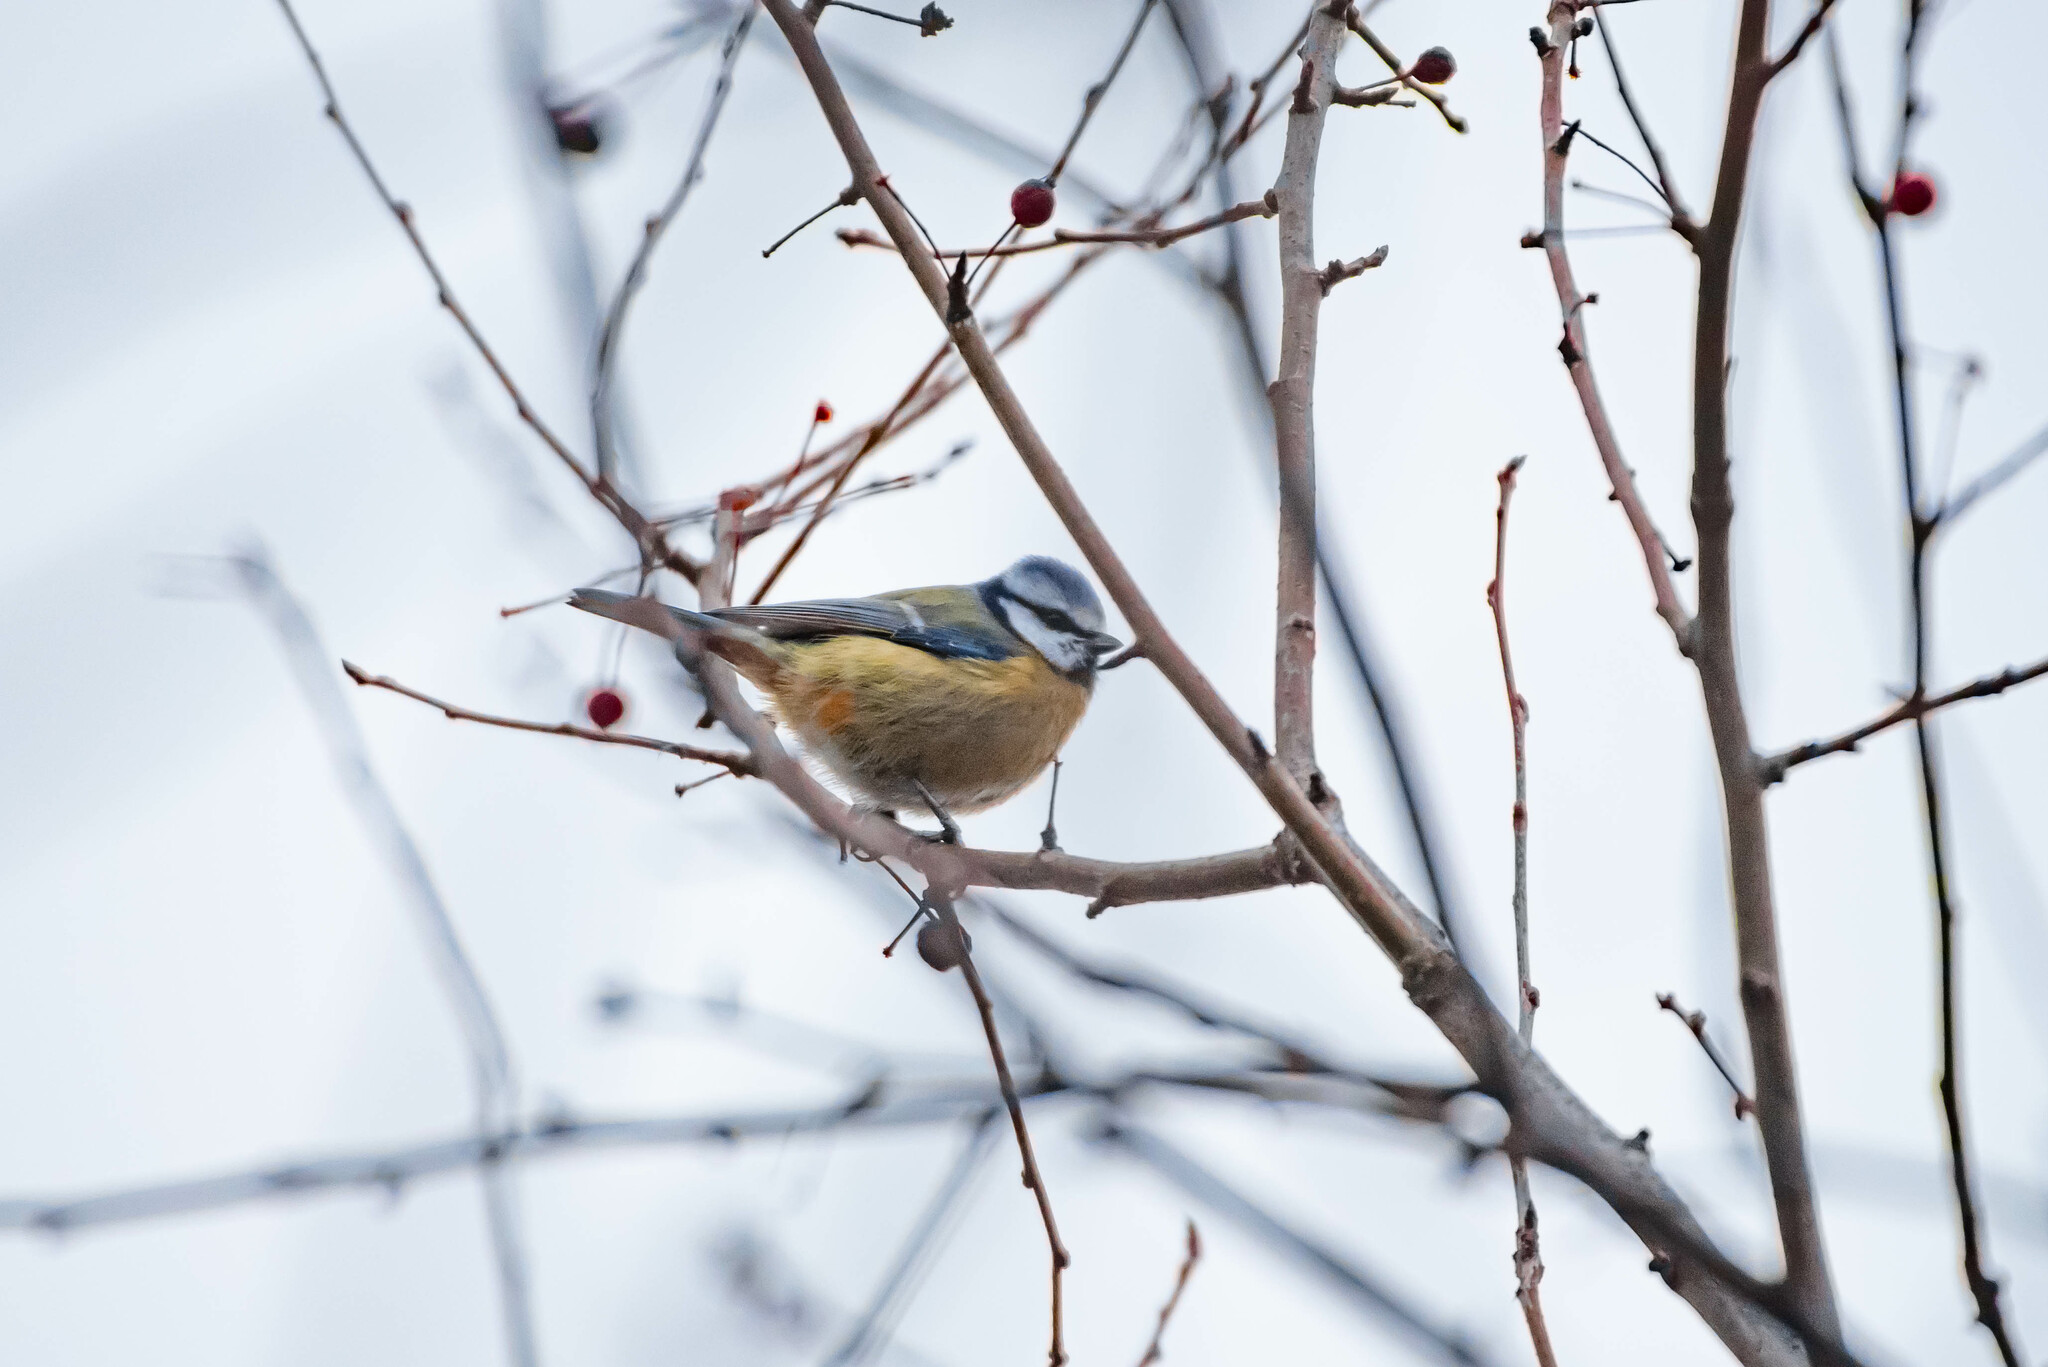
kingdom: Animalia
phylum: Chordata
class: Aves
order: Passeriformes
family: Paridae
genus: Cyanistes
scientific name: Cyanistes caeruleus
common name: Eurasian blue tit
